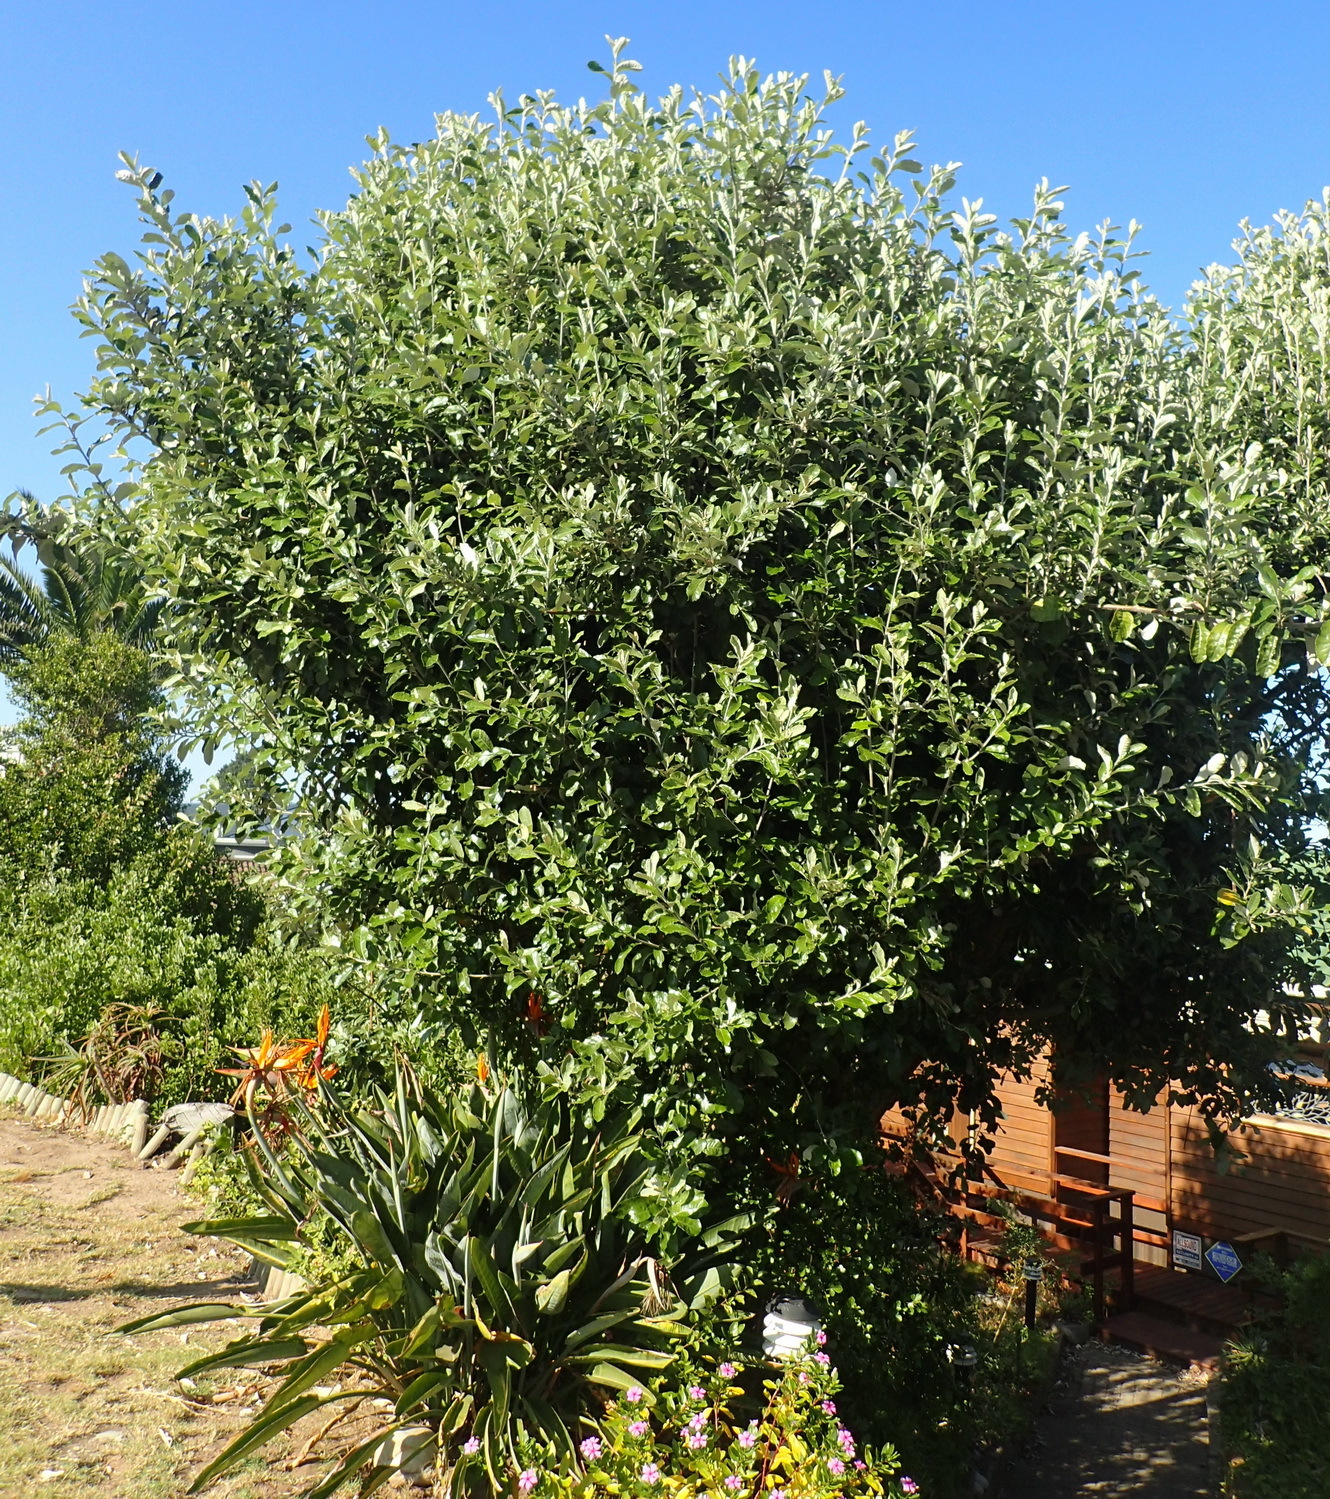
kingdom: Plantae
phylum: Tracheophyta
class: Magnoliopsida
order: Asterales
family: Asteraceae
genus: Tarchonanthus
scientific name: Tarchonanthus littoralis
